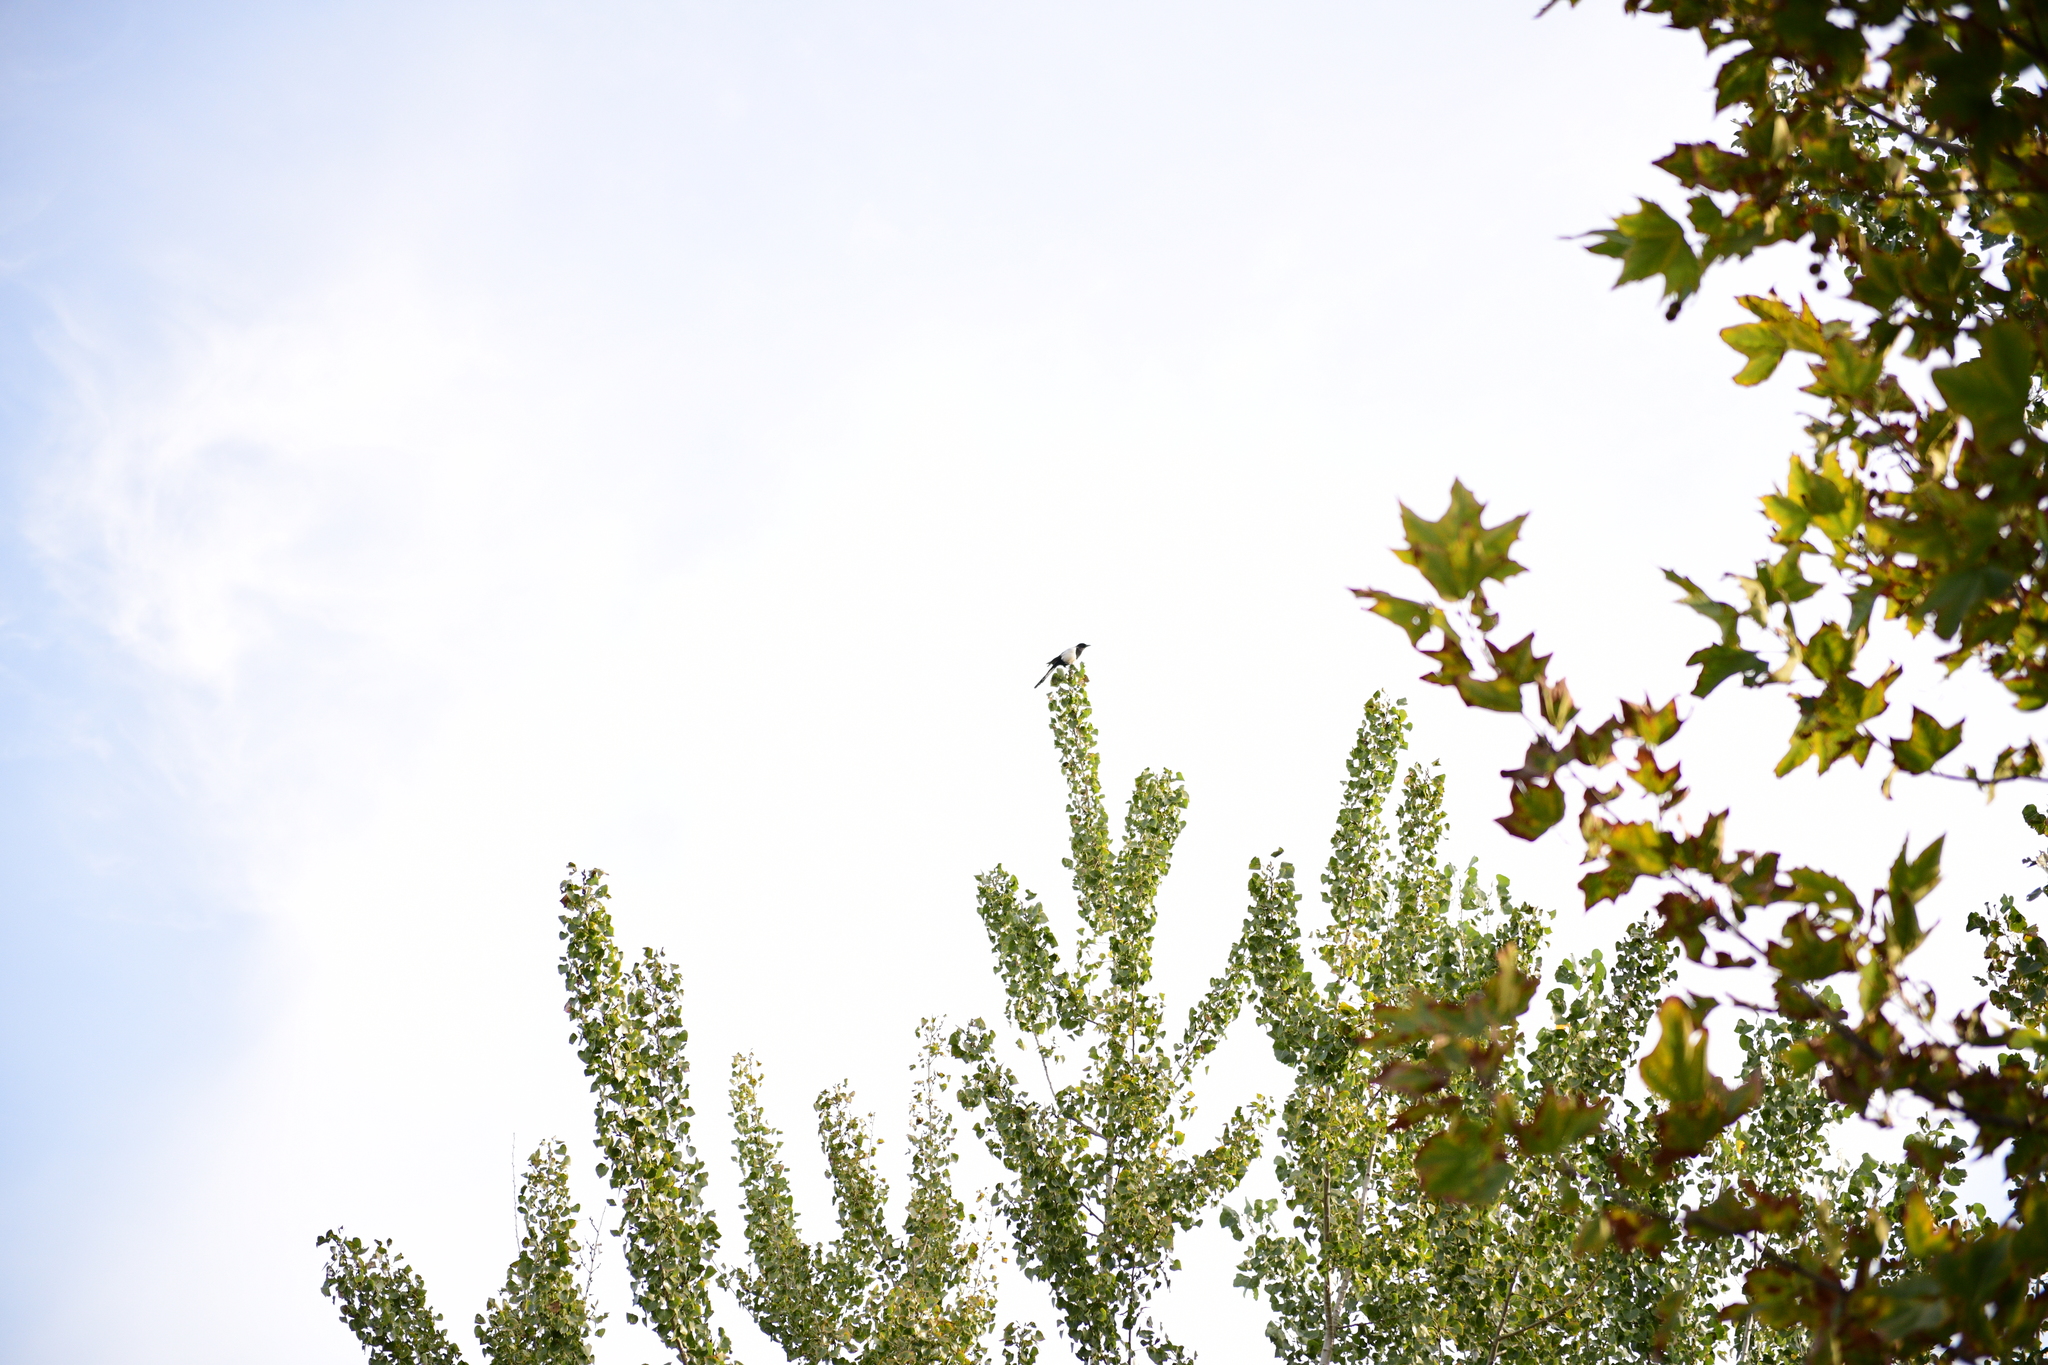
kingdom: Animalia
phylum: Chordata
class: Aves
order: Passeriformes
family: Corvidae
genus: Pica
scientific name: Pica serica
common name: Oriental magpie
